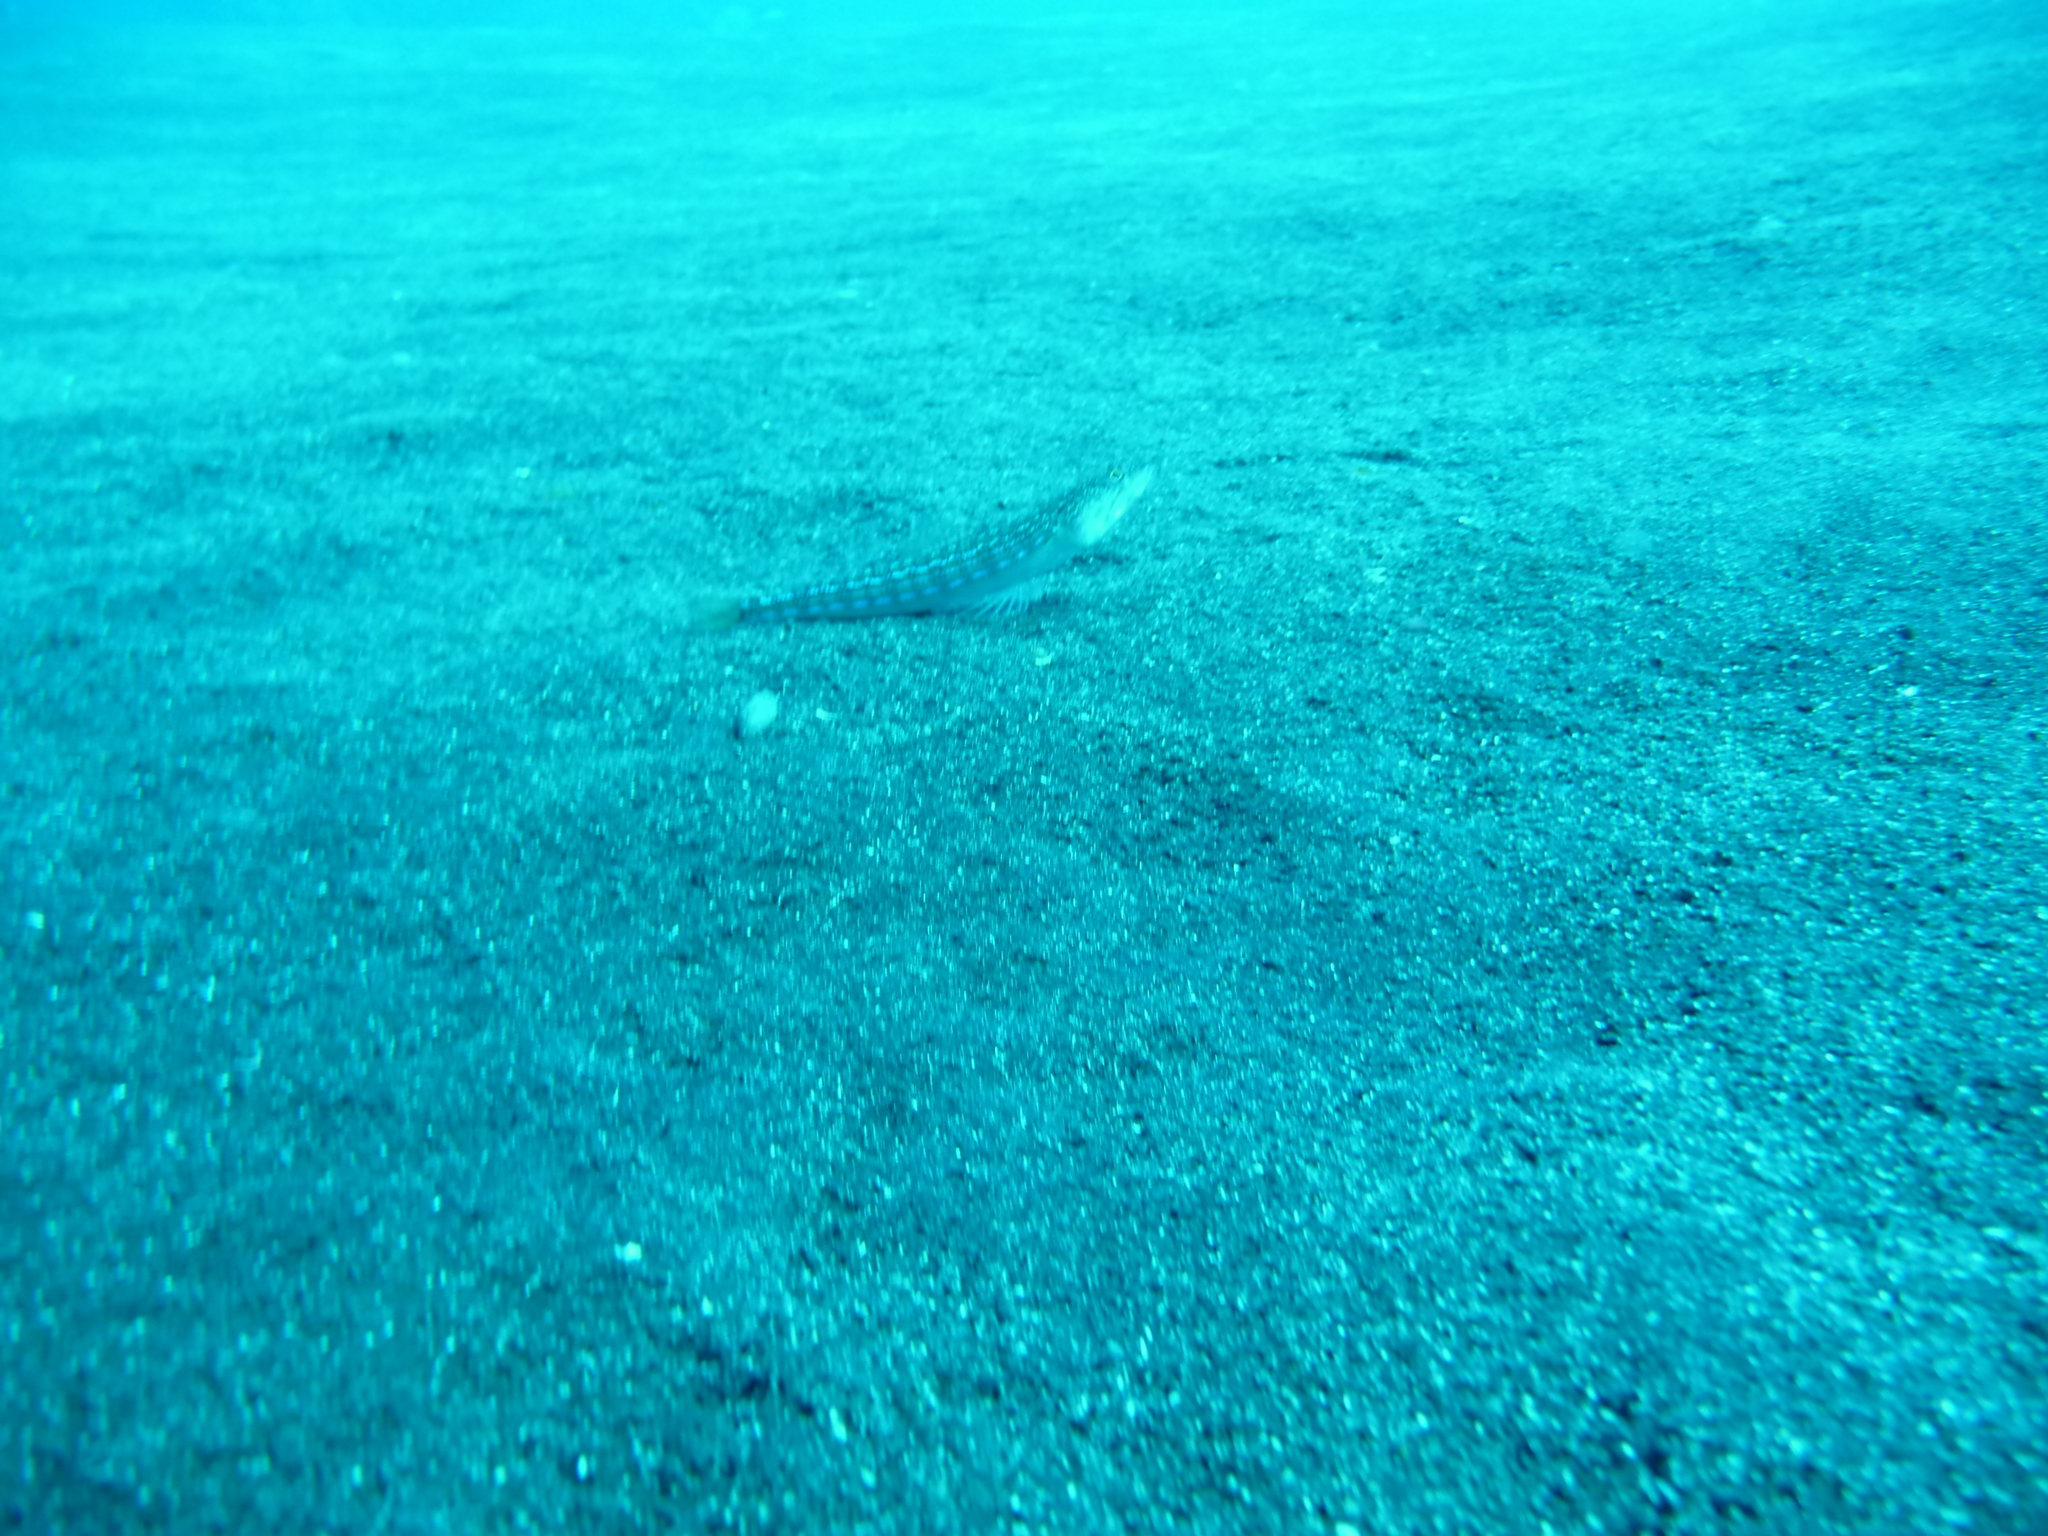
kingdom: Animalia
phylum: Chordata
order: Aulopiformes
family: Synodontidae
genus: Synodus
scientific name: Synodus saurus
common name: Atlantic lizardfish
